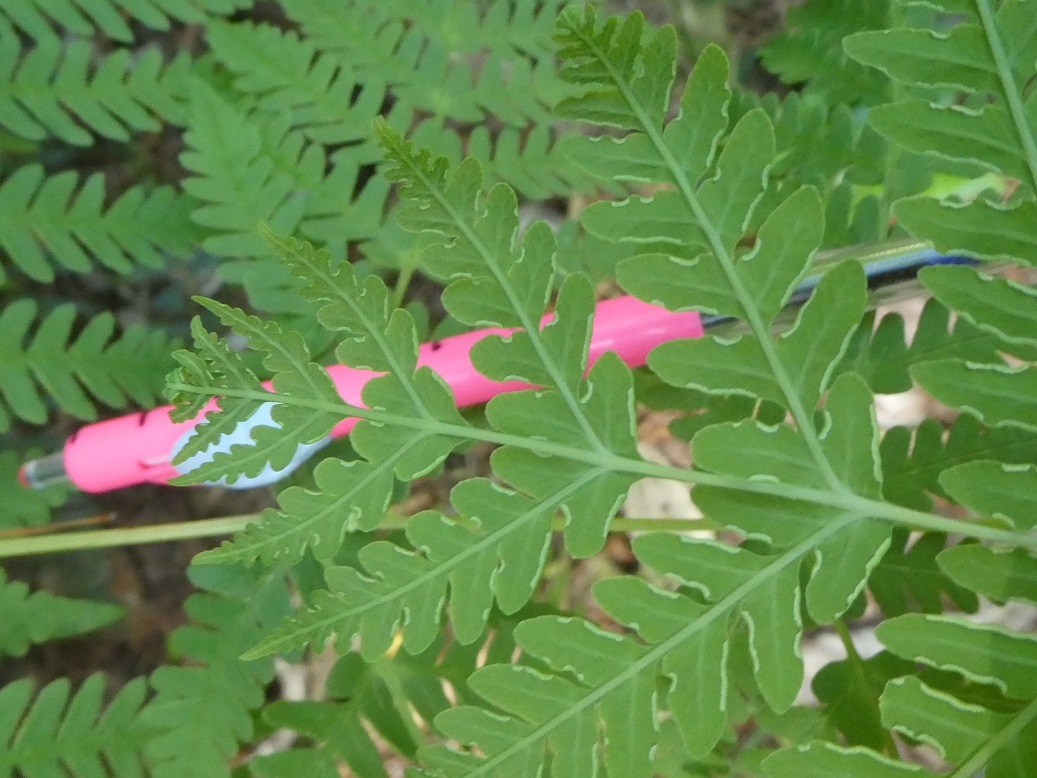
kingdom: Plantae
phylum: Tracheophyta
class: Polypodiopsida
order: Polypodiales
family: Dennstaedtiaceae
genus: Histiopteris
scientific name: Histiopteris incisa
